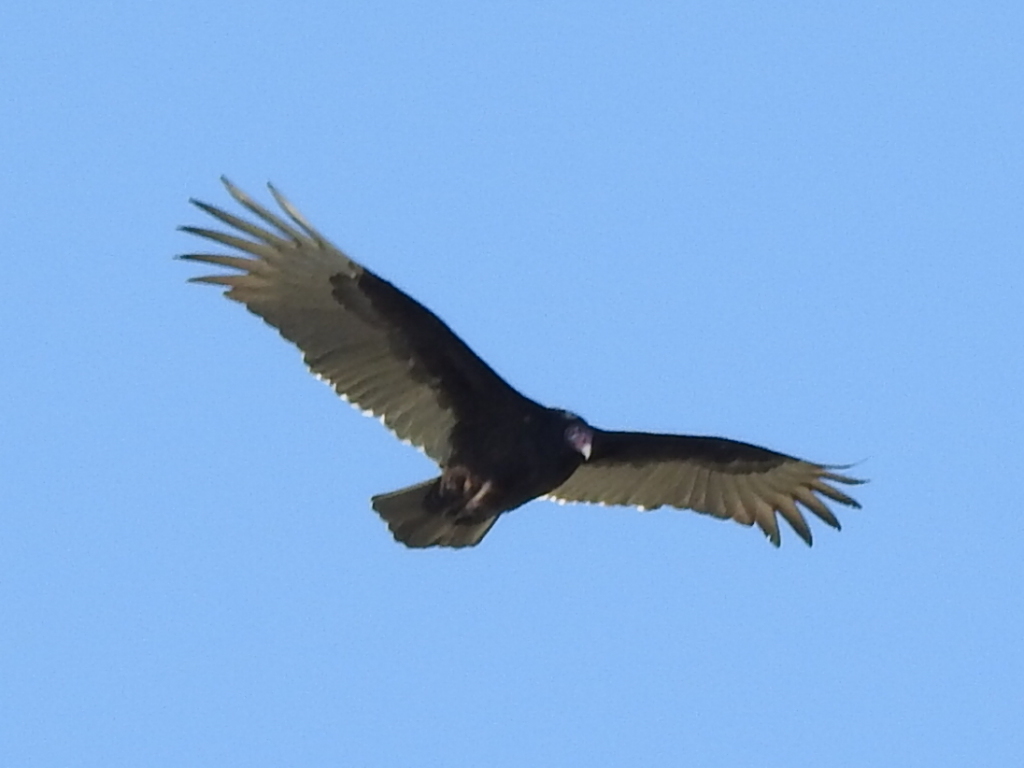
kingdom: Animalia
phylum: Chordata
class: Aves
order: Accipitriformes
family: Cathartidae
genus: Cathartes
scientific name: Cathartes aura
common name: Turkey vulture
